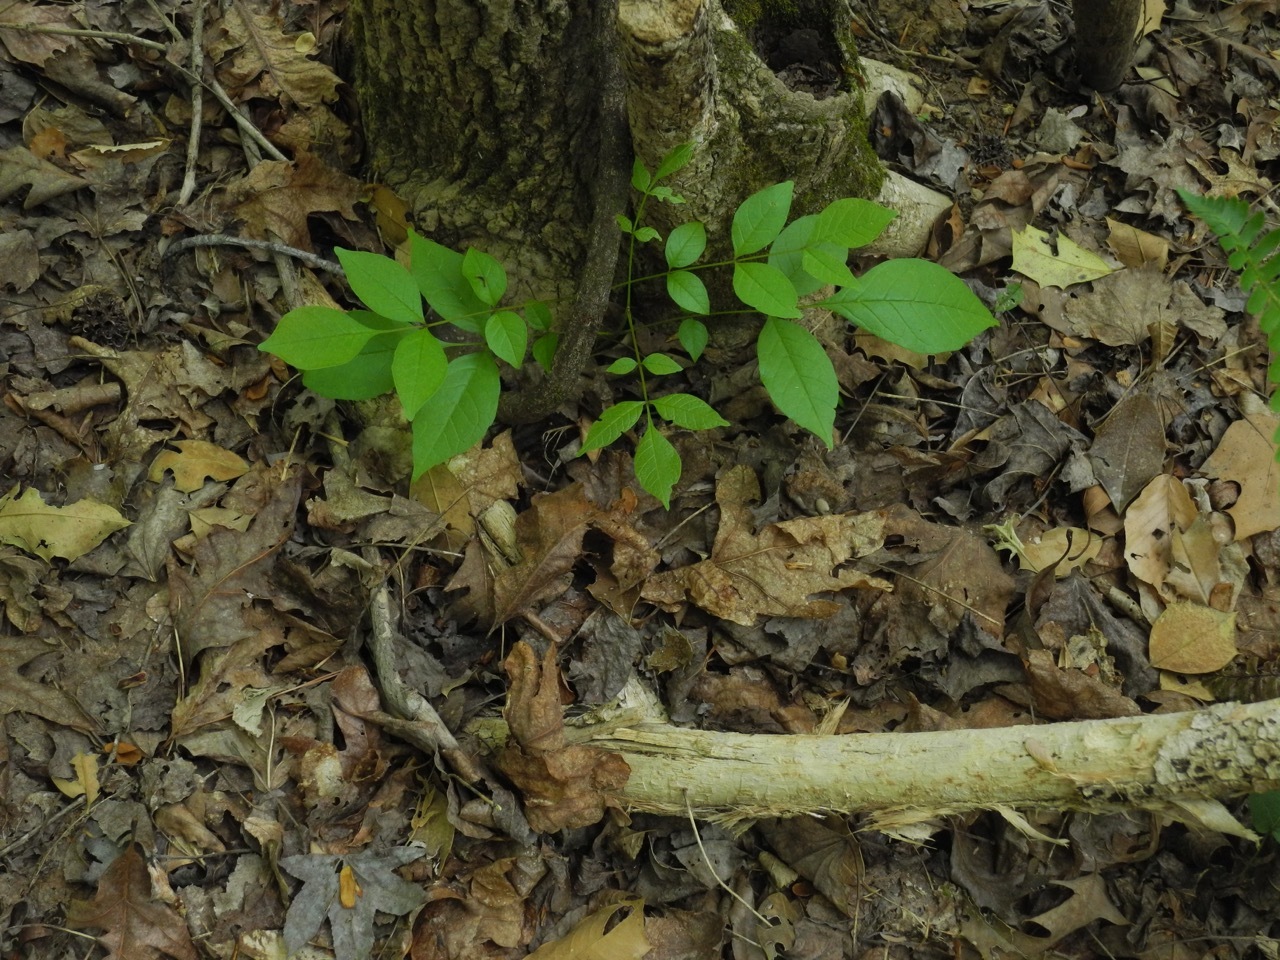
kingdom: Plantae
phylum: Tracheophyta
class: Magnoliopsida
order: Lamiales
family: Oleaceae
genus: Fraxinus
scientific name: Fraxinus pennsylvanica
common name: Green ash
